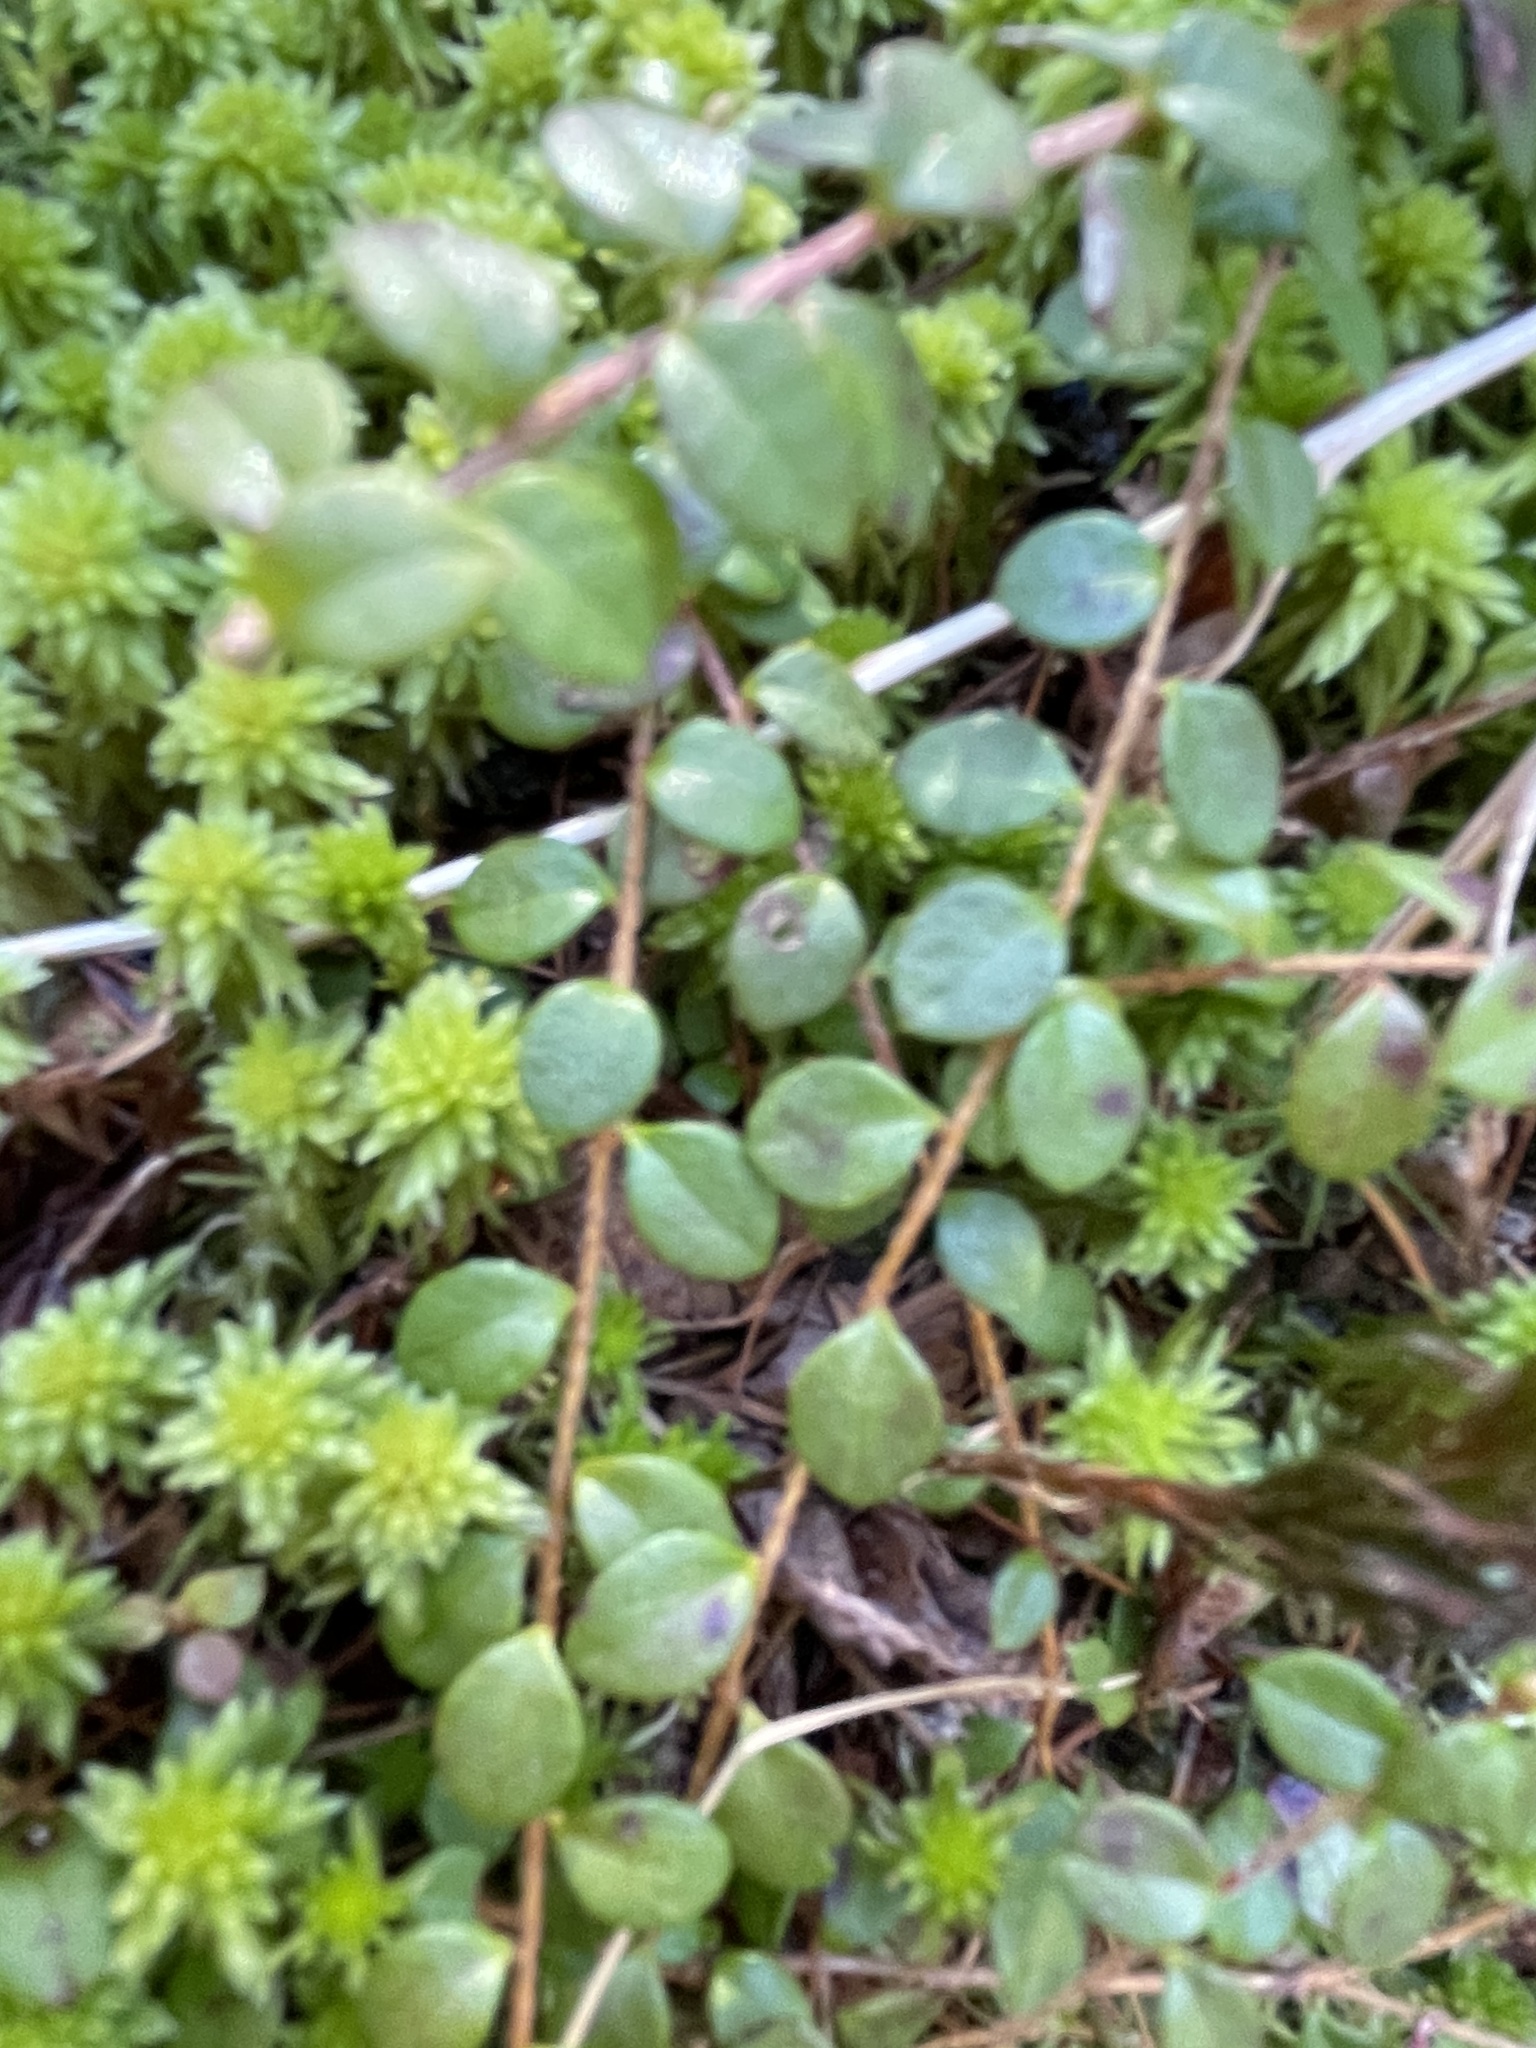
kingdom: Plantae
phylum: Tracheophyta
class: Magnoliopsida
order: Ericales
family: Ericaceae
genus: Gaultheria
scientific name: Gaultheria hispidula
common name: Cancer wintergreen
